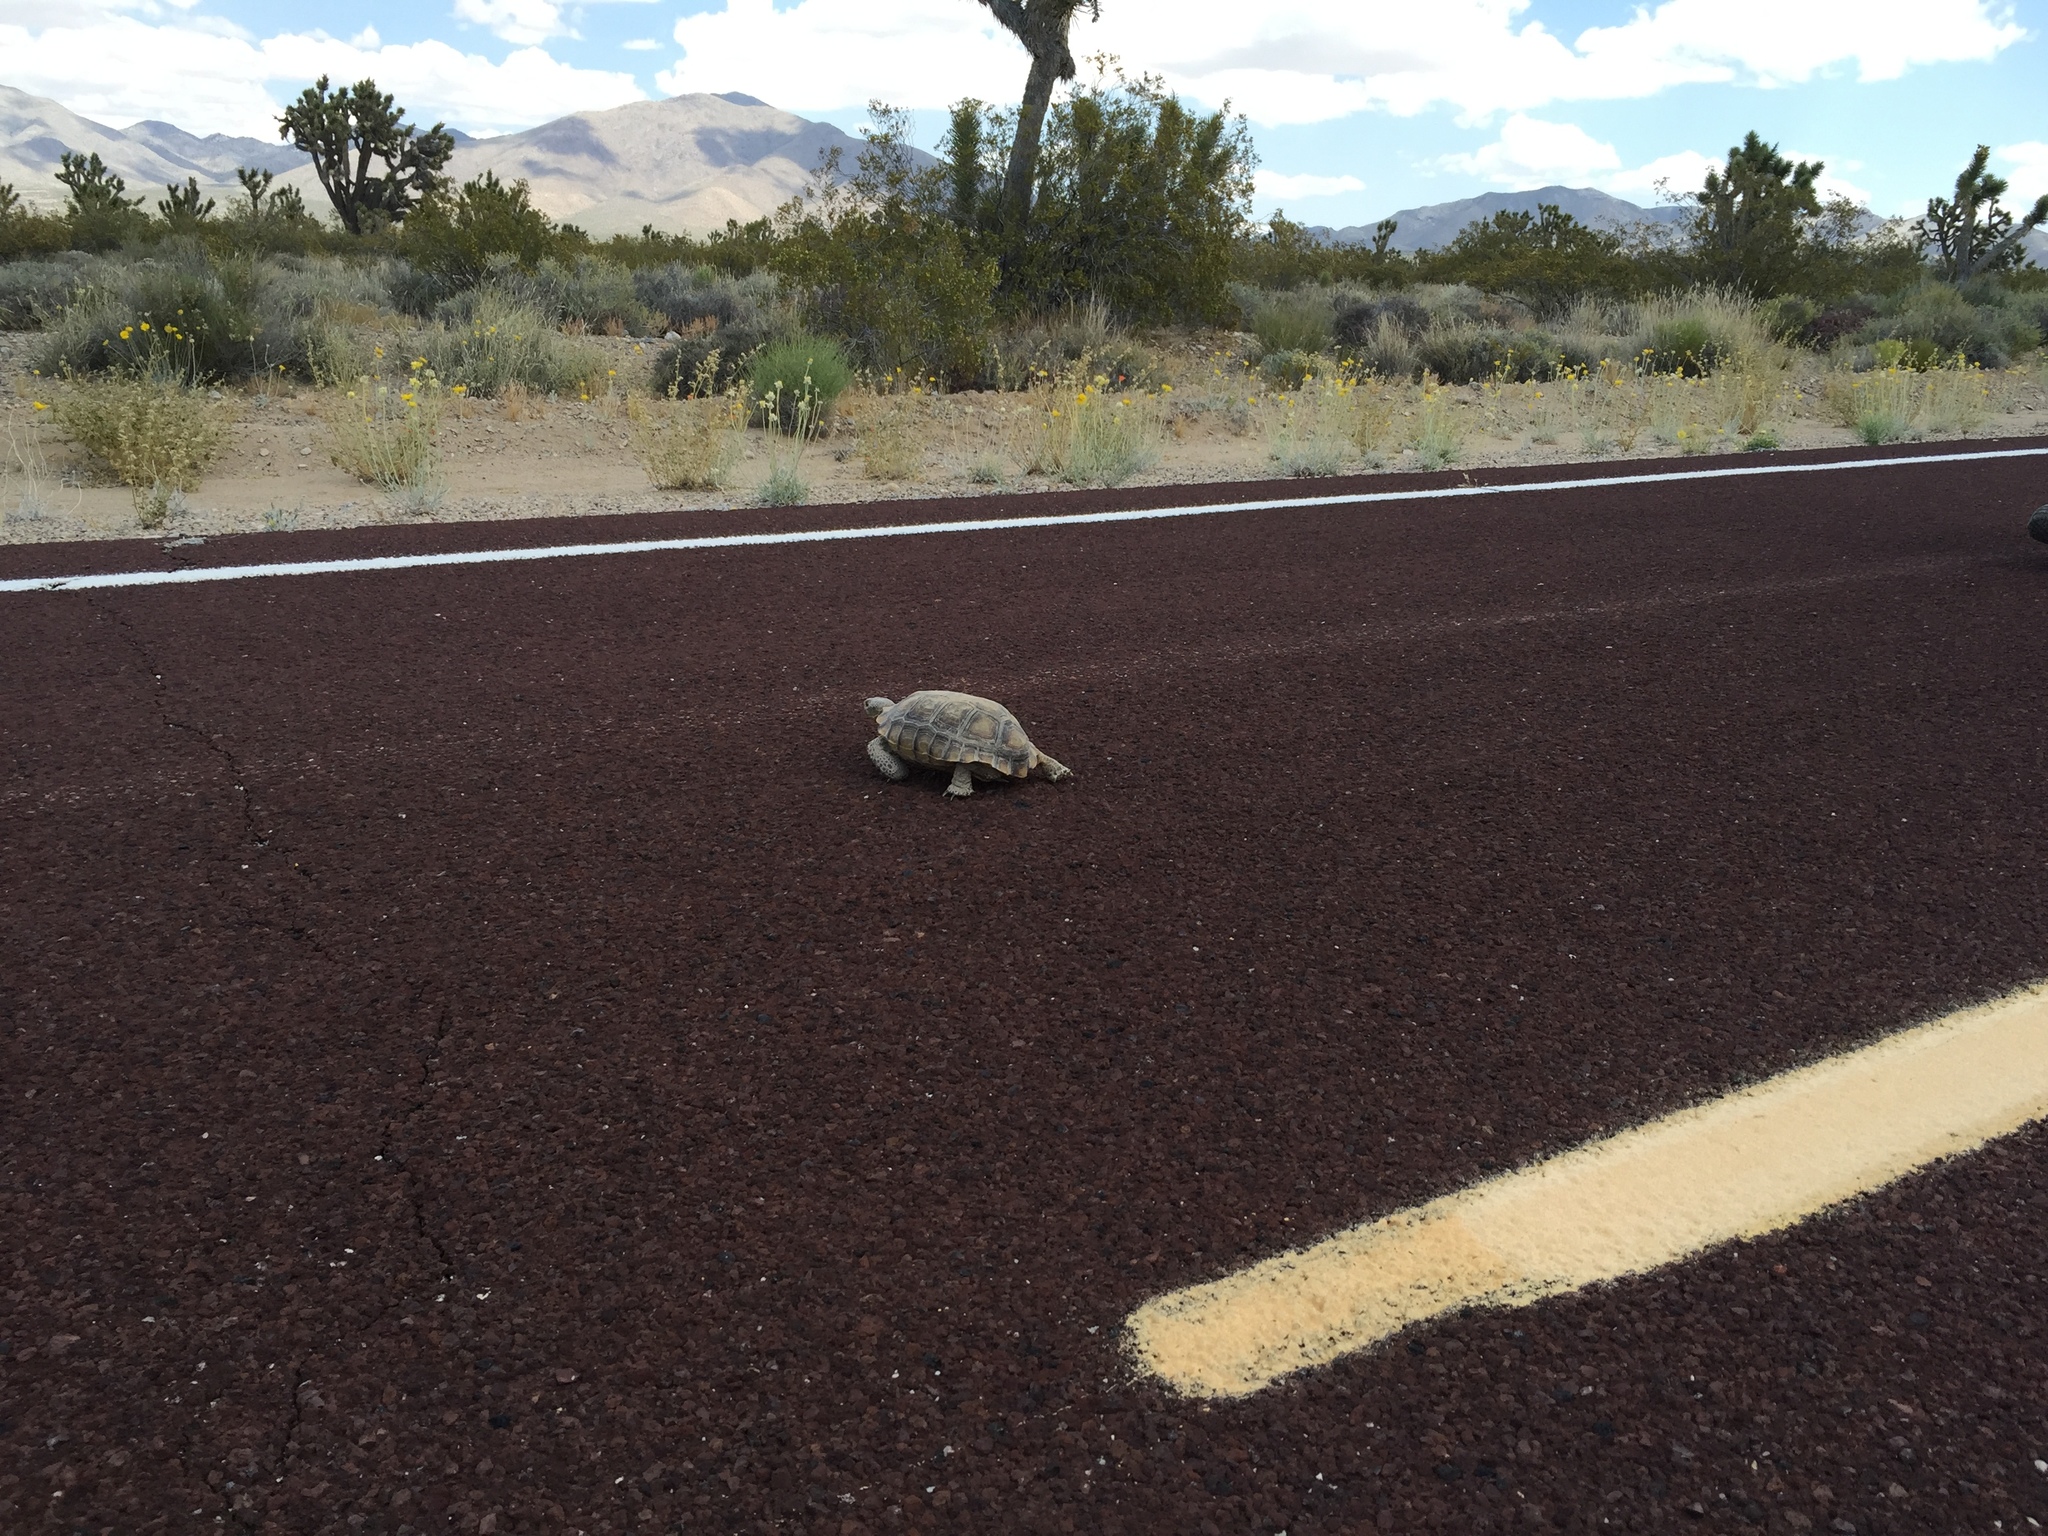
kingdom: Animalia
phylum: Chordata
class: Testudines
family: Testudinidae
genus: Gopherus
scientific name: Gopherus agassizii
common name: Mojave desert tortoise
